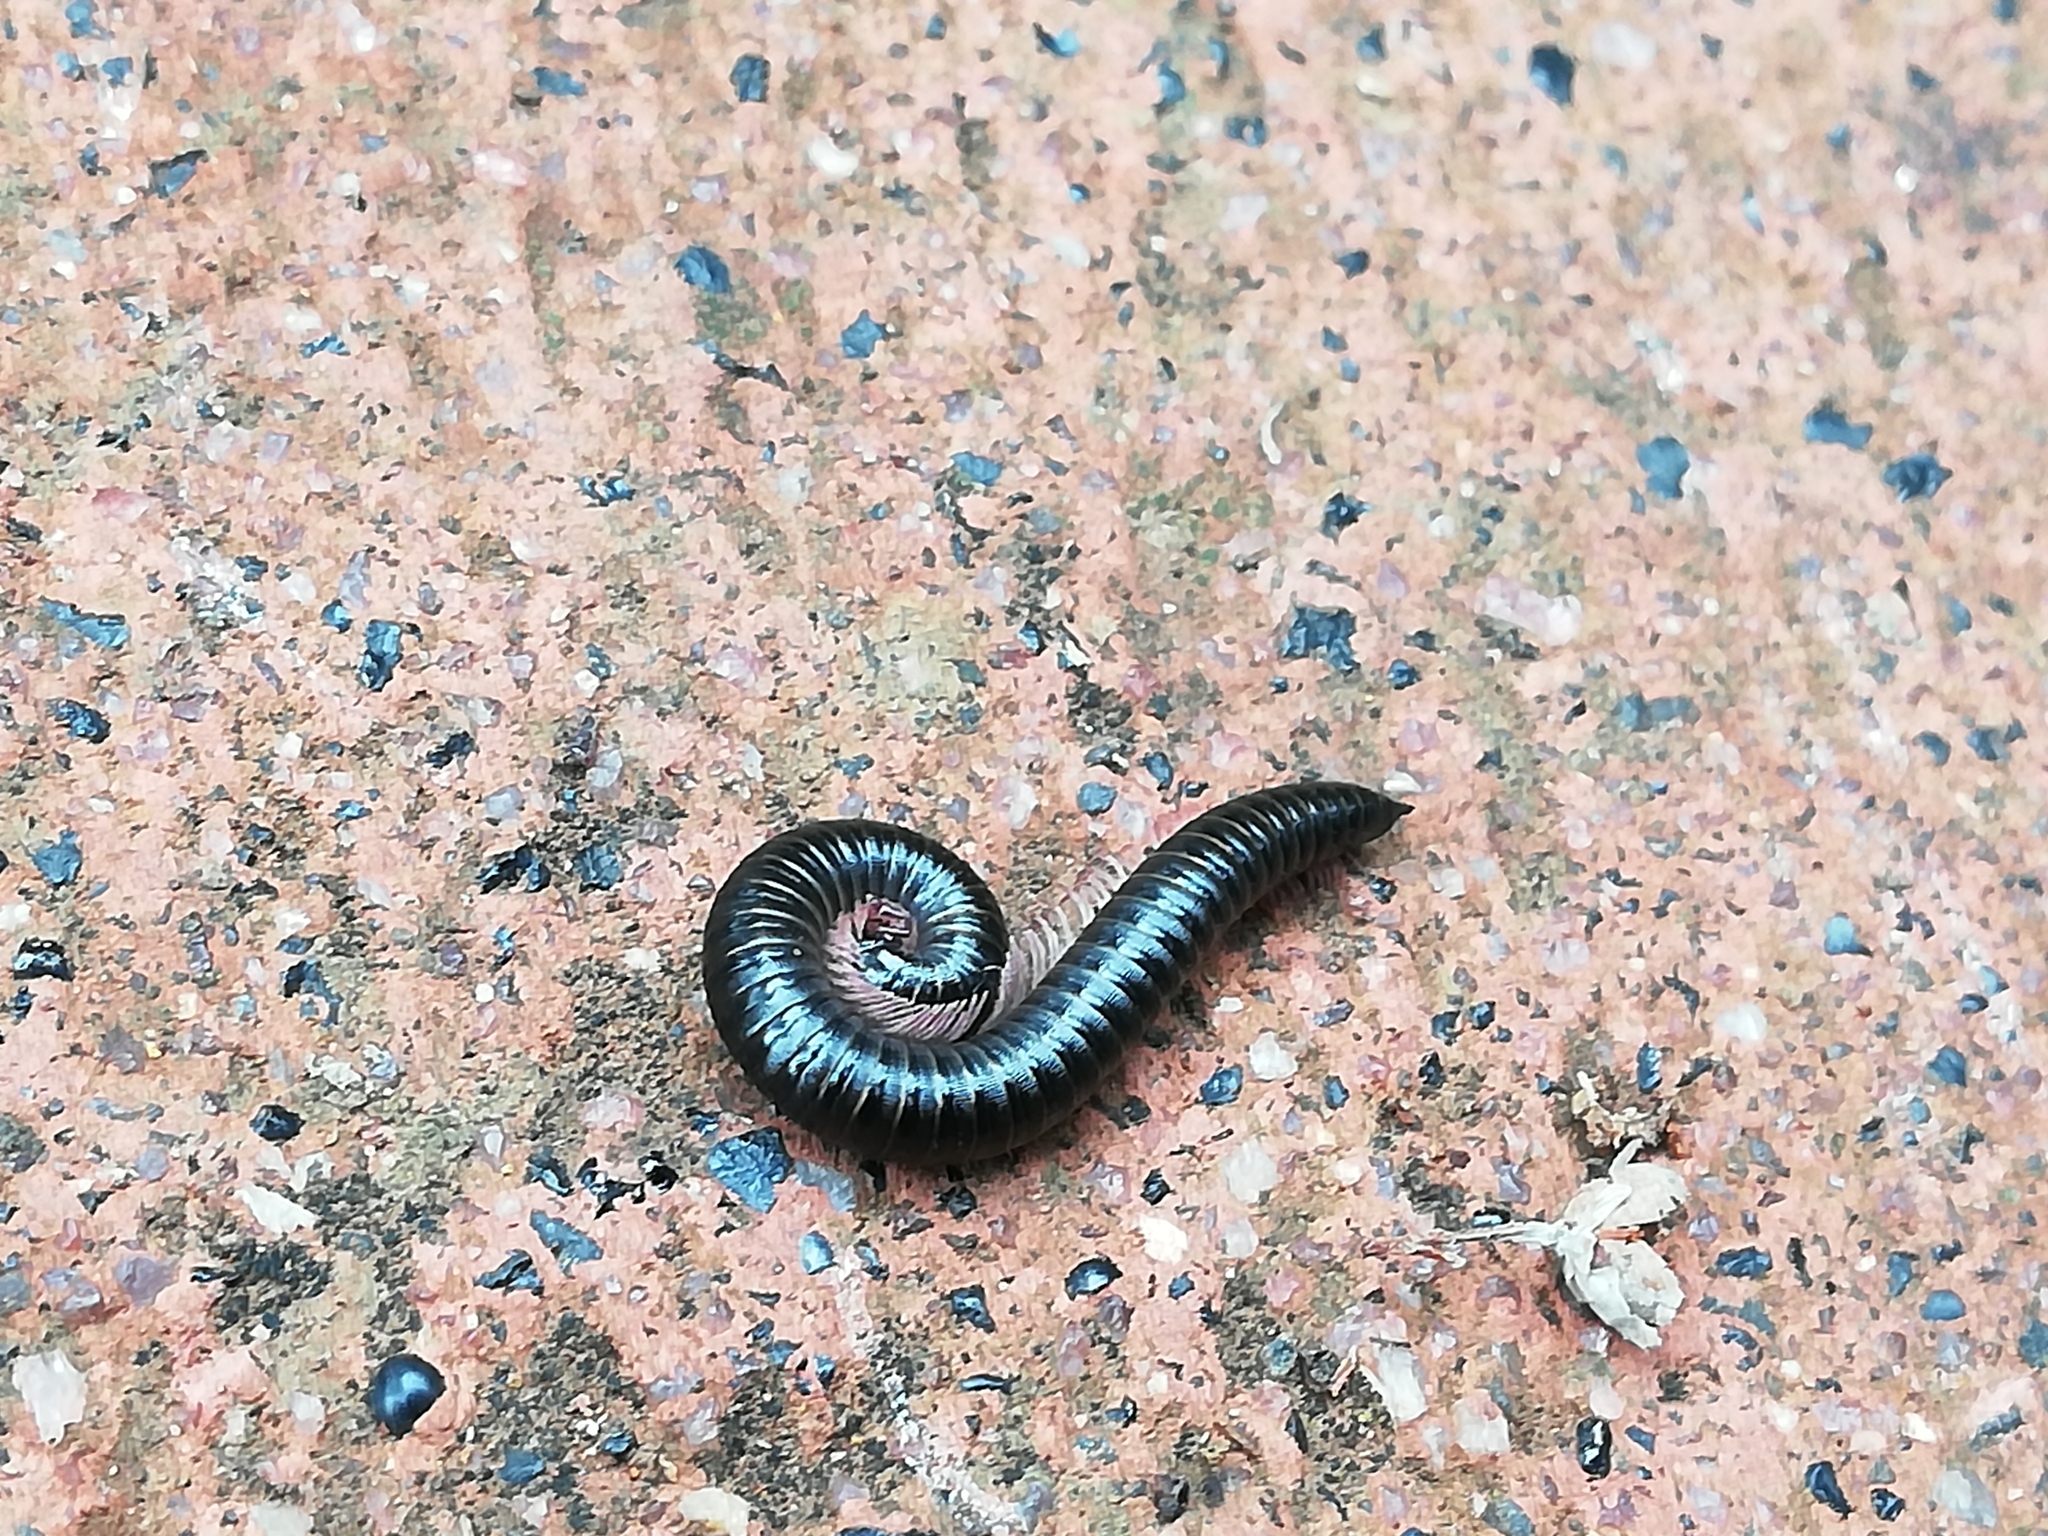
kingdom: Animalia
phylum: Arthropoda
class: Diplopoda
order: Julida
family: Julidae
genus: Ommatoiulus
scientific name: Ommatoiulus moreleti
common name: Portuguese millipede
